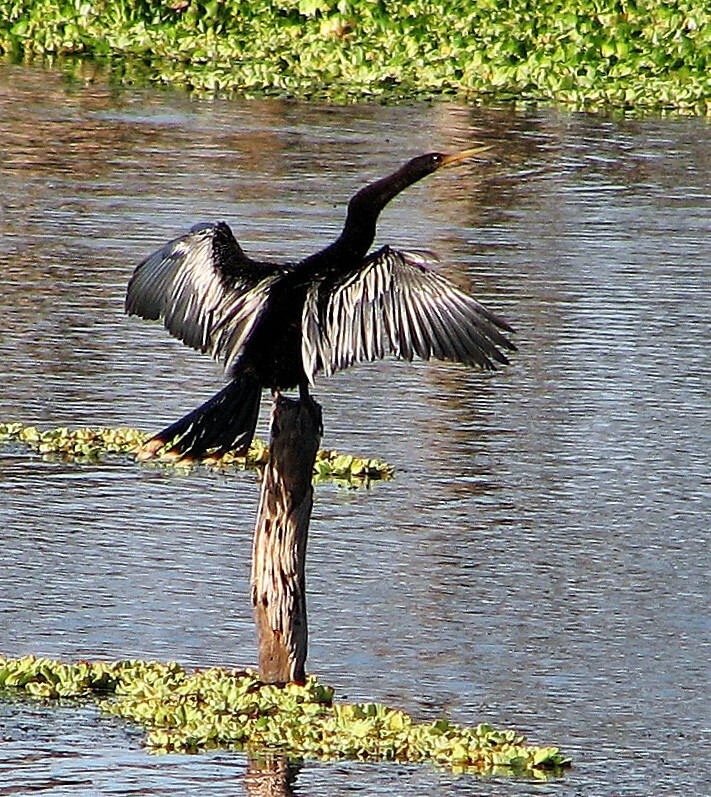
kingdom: Animalia
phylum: Chordata
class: Aves
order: Suliformes
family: Anhingidae
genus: Anhinga
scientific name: Anhinga anhinga
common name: Anhinga
